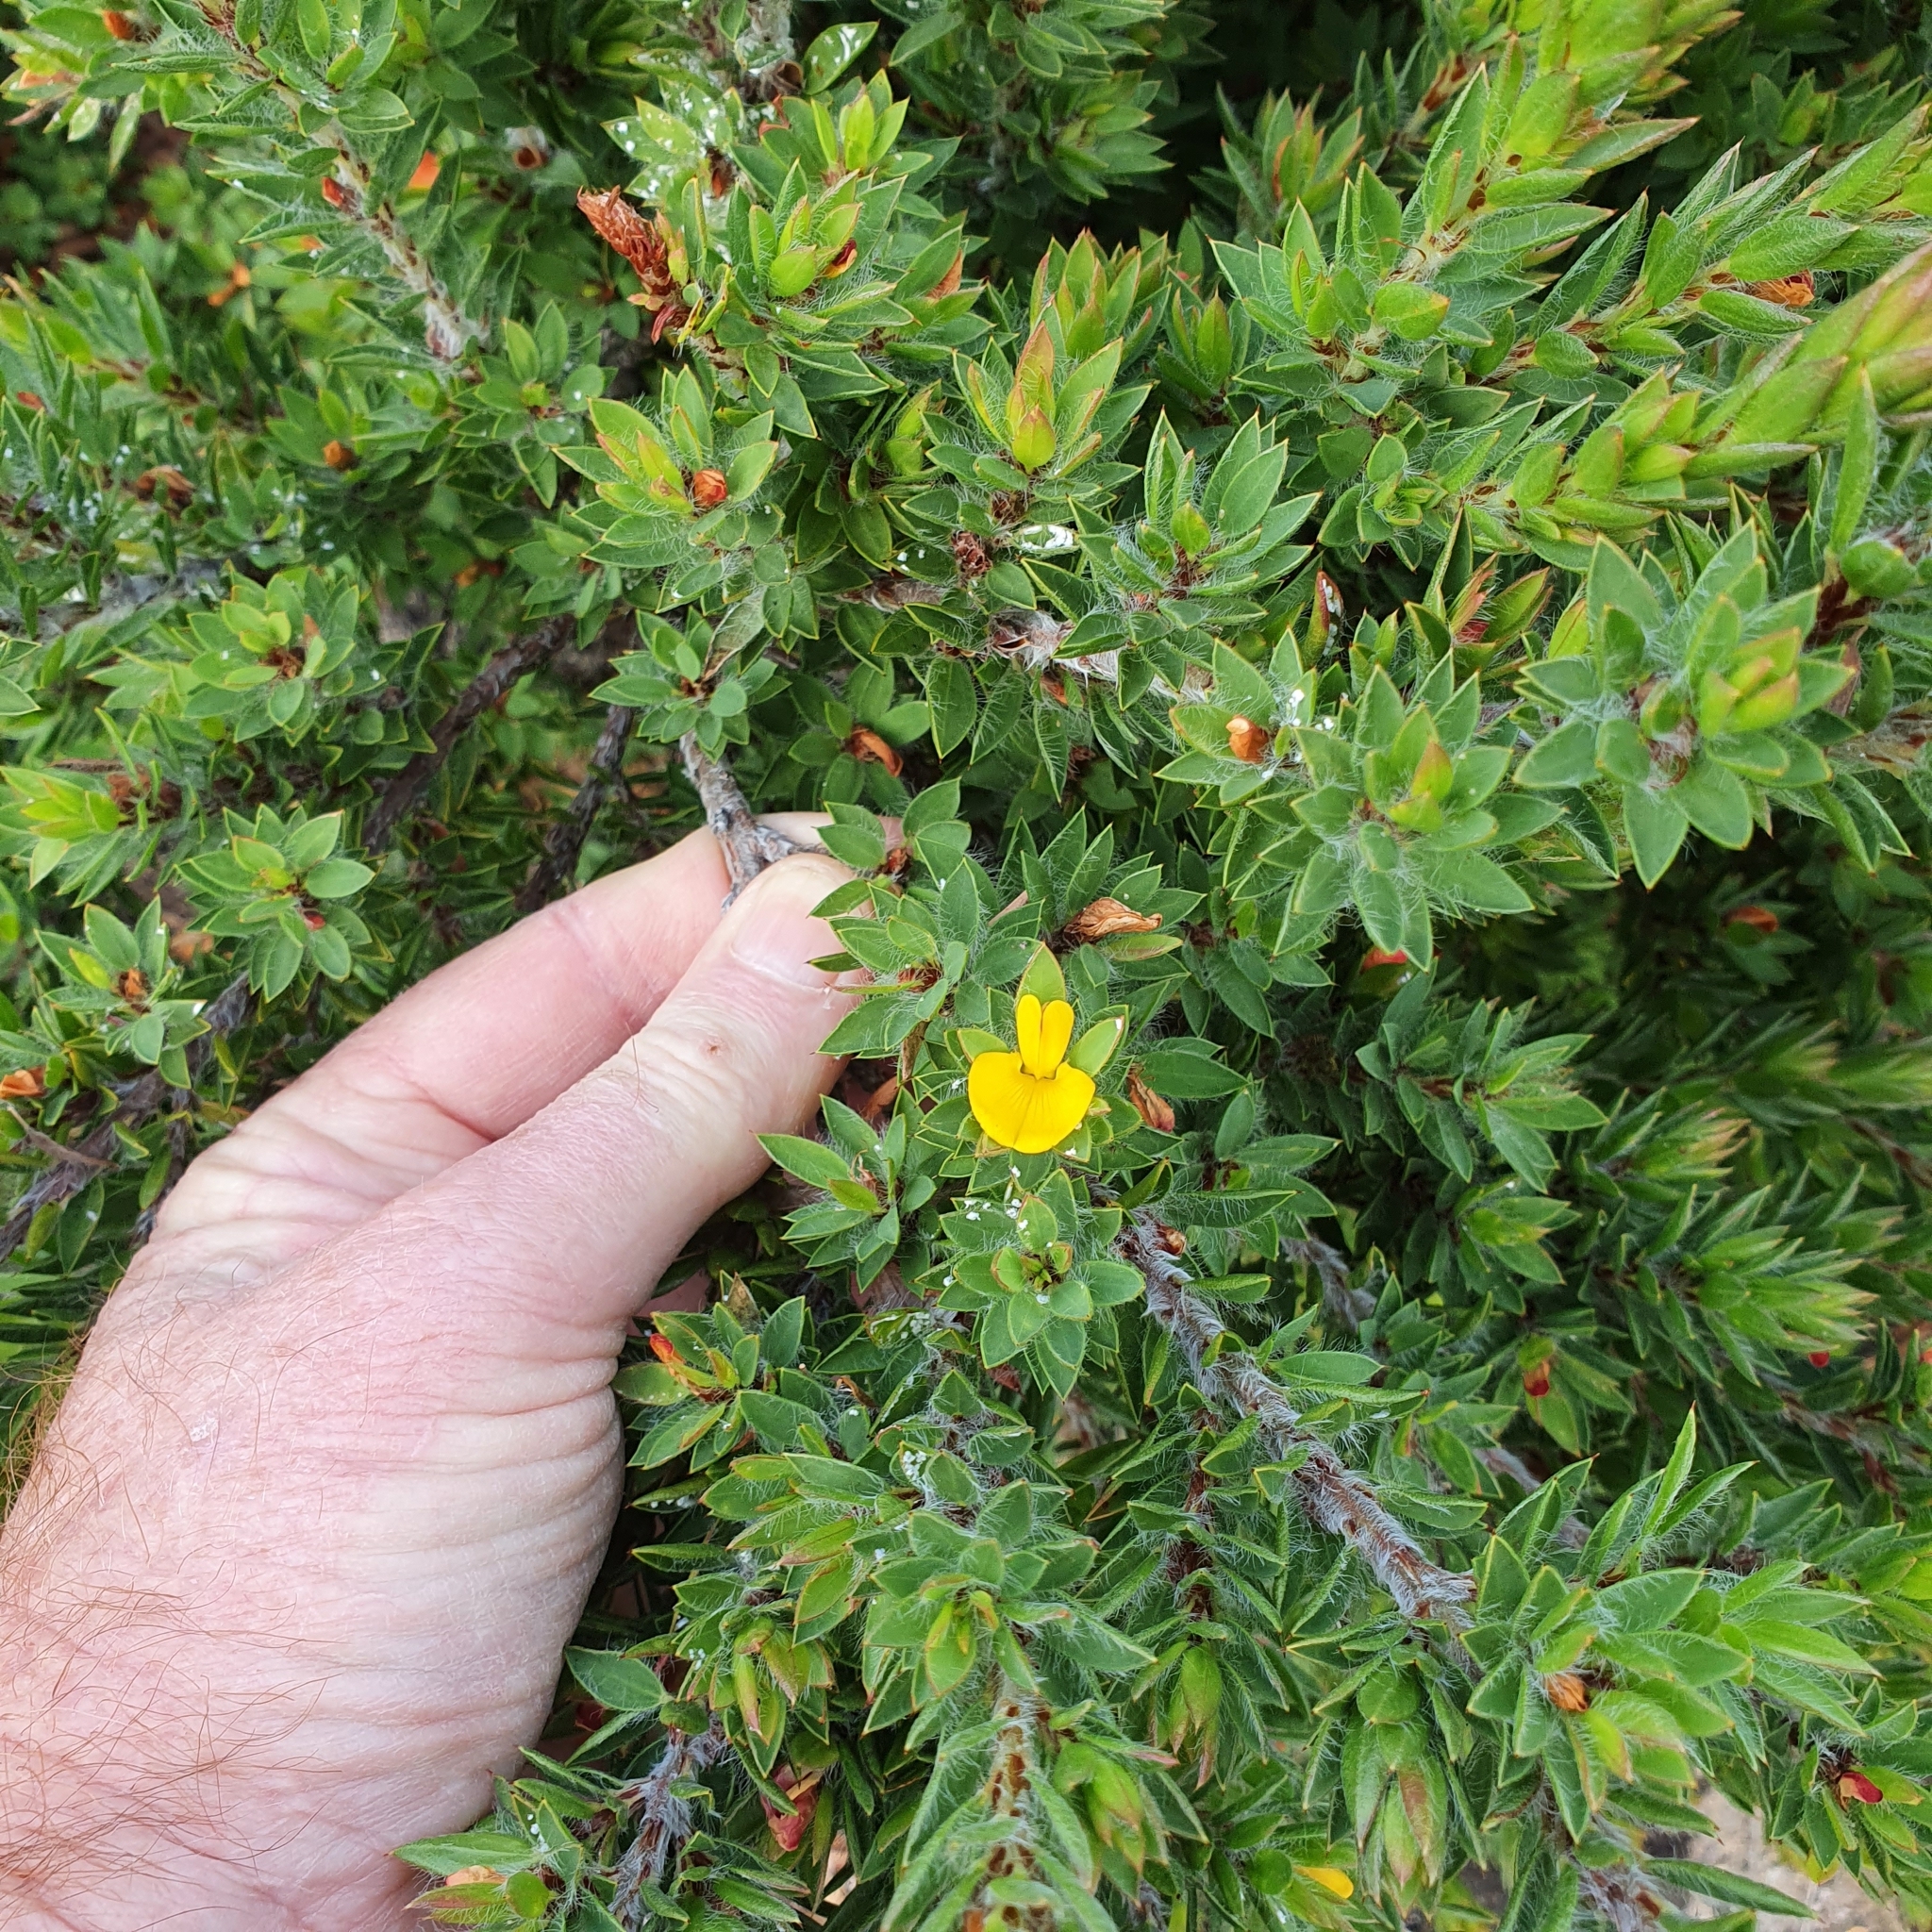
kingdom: Plantae
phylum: Tracheophyta
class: Magnoliopsida
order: Fabales
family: Fabaceae
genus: Pultenaea
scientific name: Pultenaea villifera
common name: Yellow bush-pea
